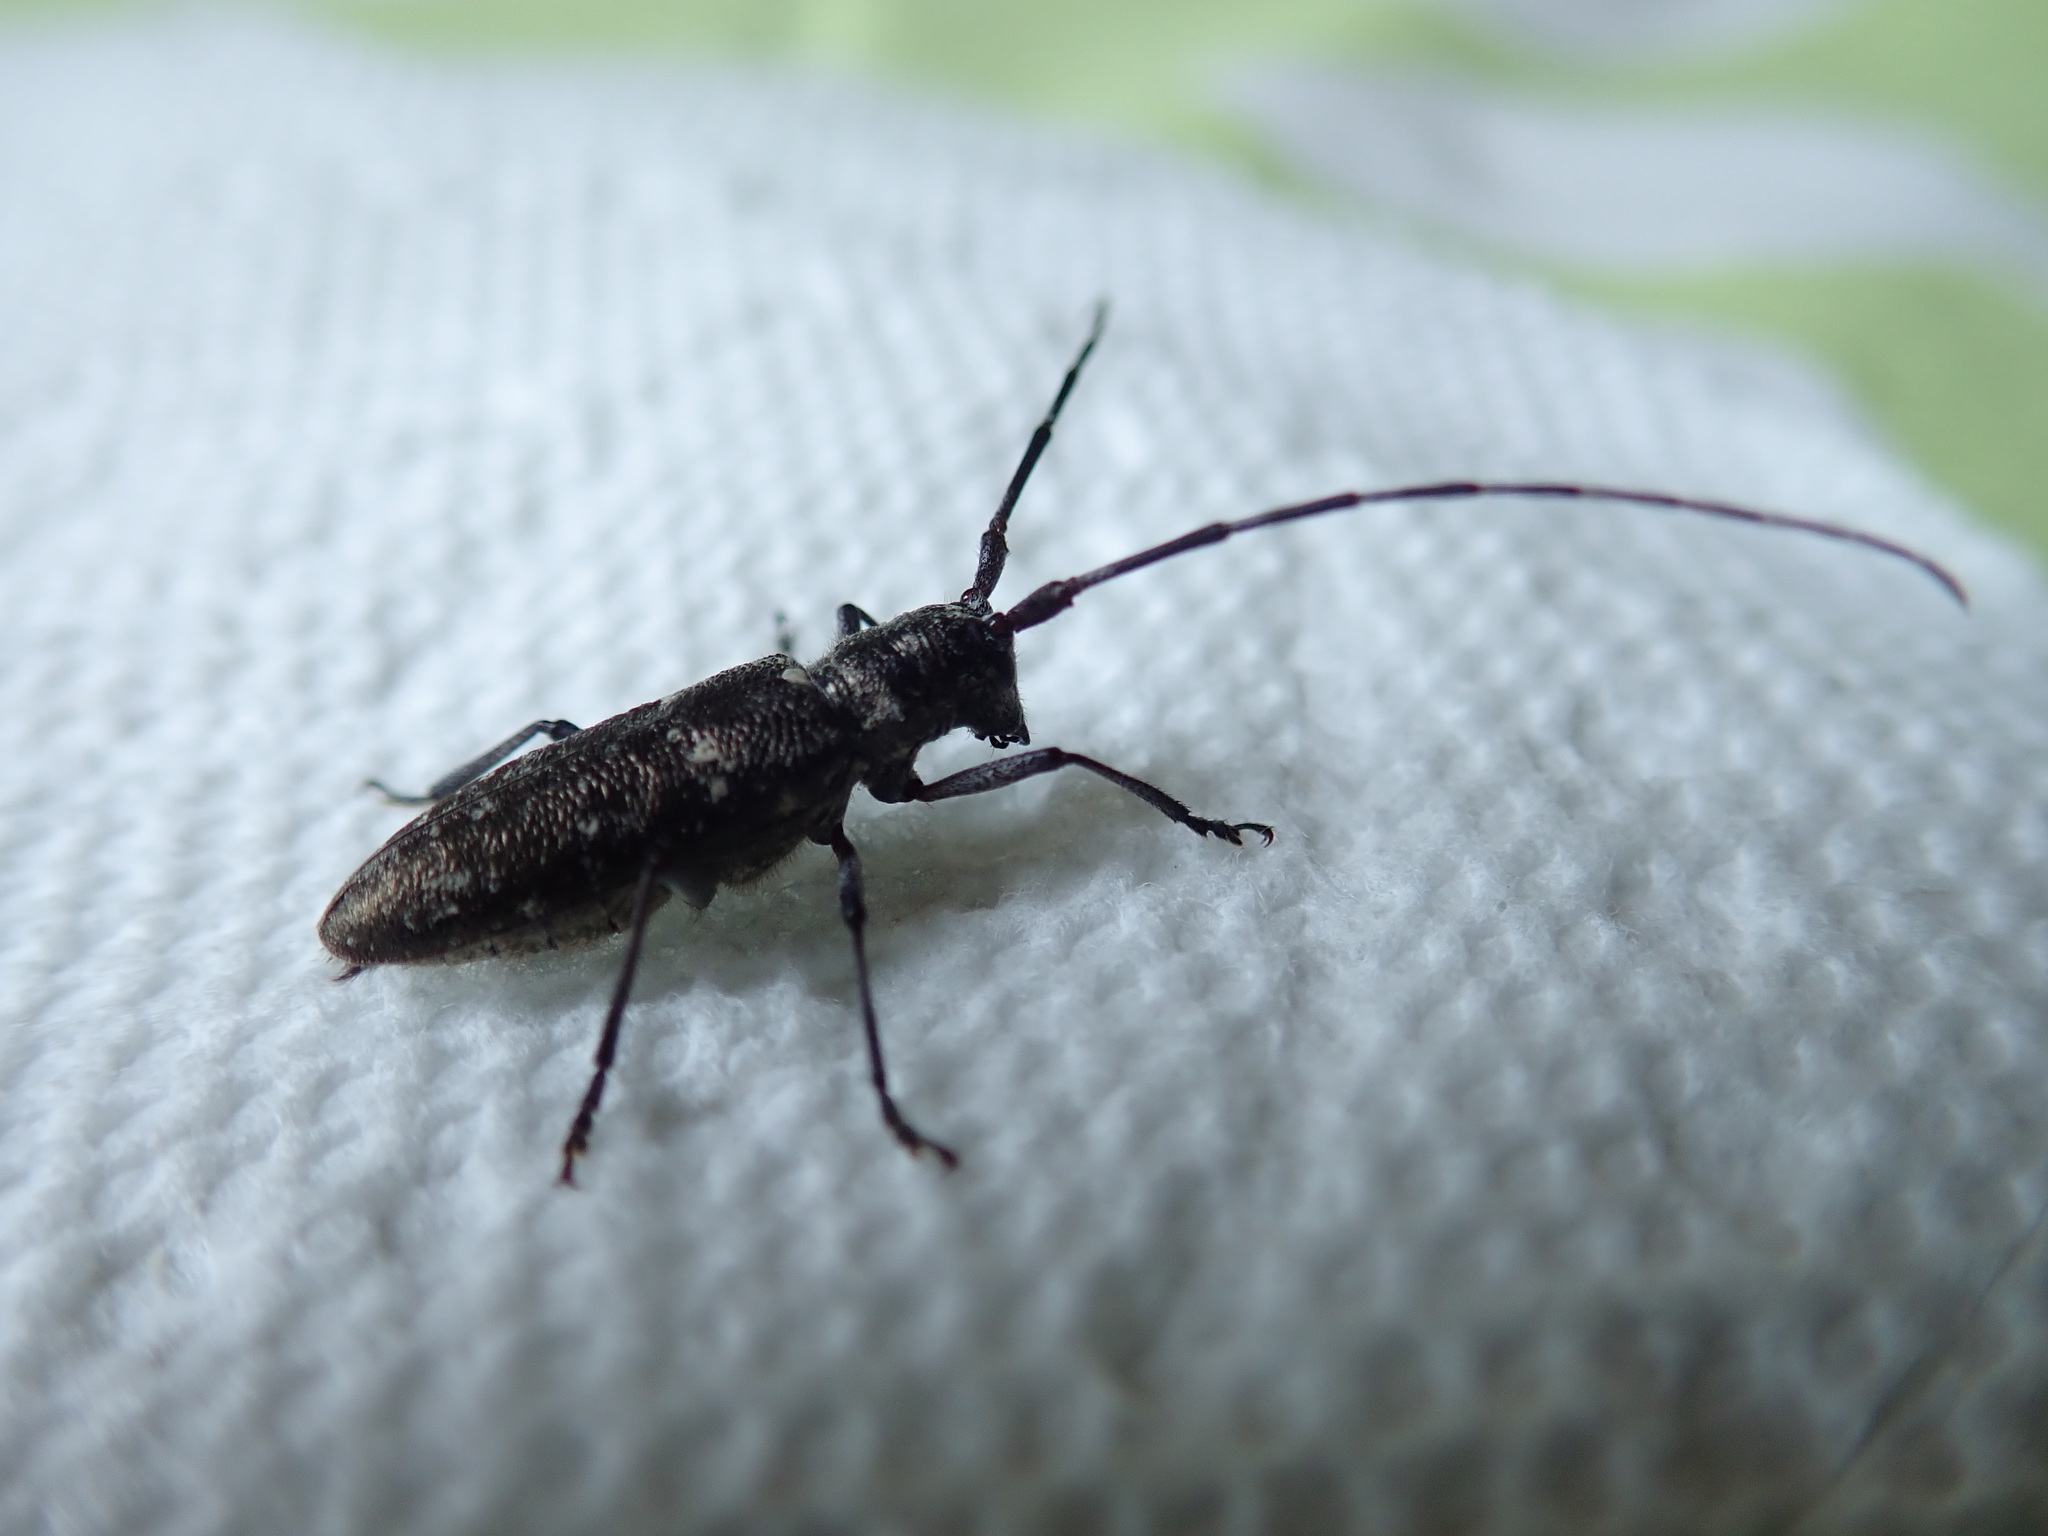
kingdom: Animalia
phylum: Arthropoda
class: Insecta
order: Coleoptera
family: Cerambycidae
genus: Monochamus
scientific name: Monochamus scutellatus
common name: White-spotted sawyer beetle
